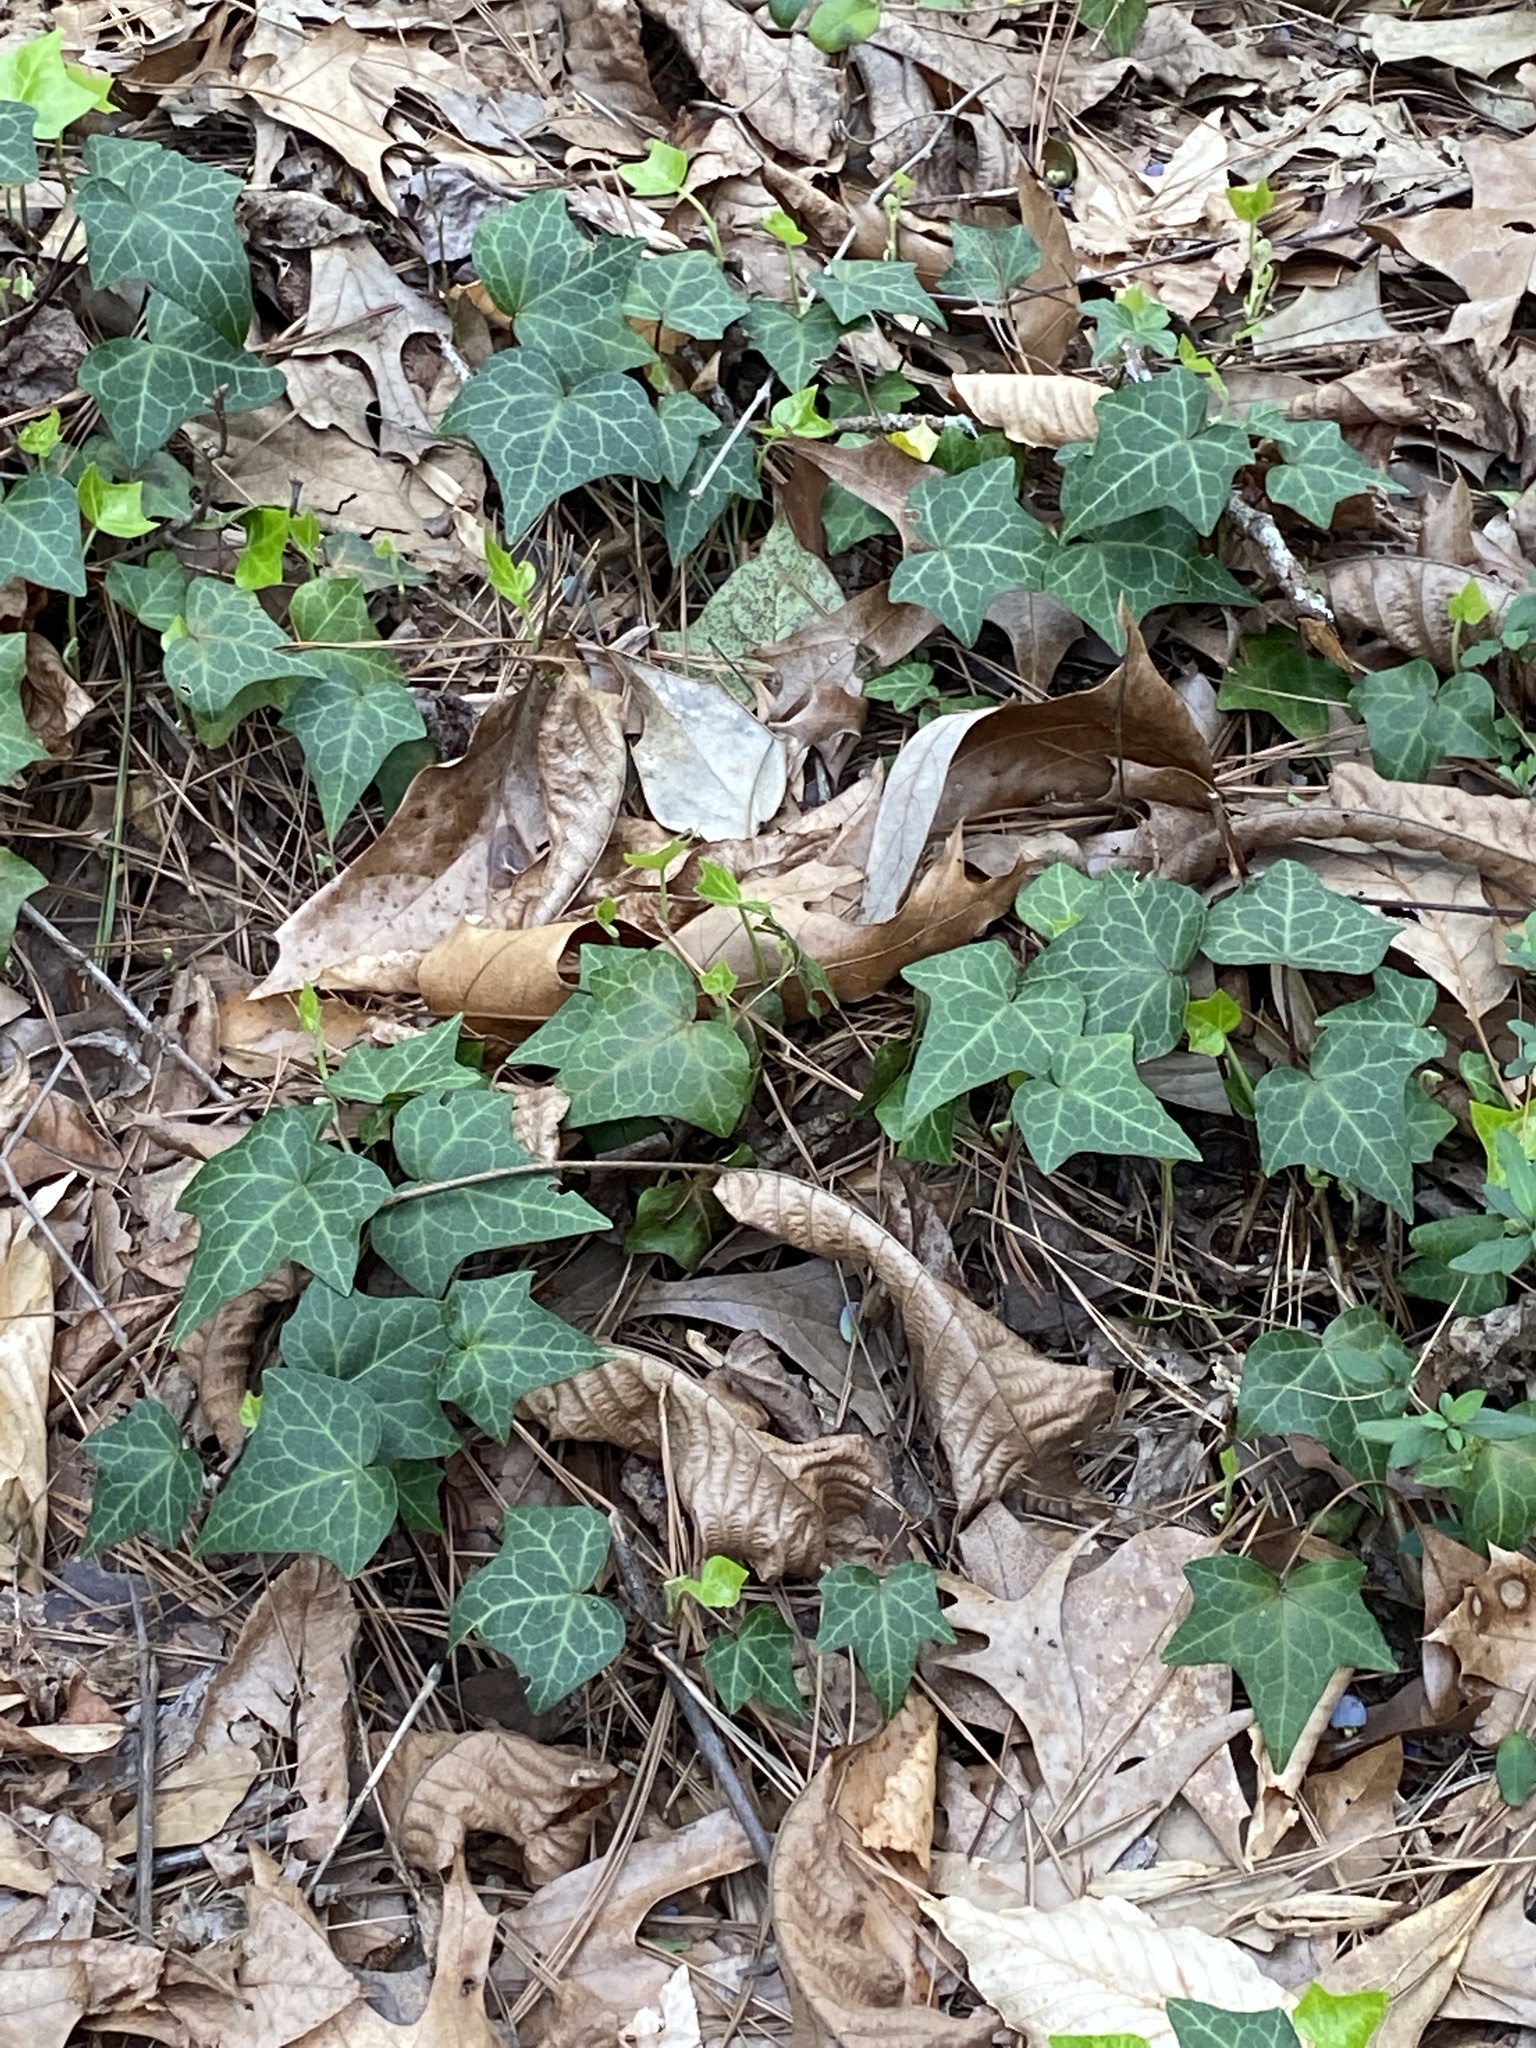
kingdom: Plantae
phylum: Tracheophyta
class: Magnoliopsida
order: Apiales
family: Araliaceae
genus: Hedera
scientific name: Hedera helix
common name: Ivy
